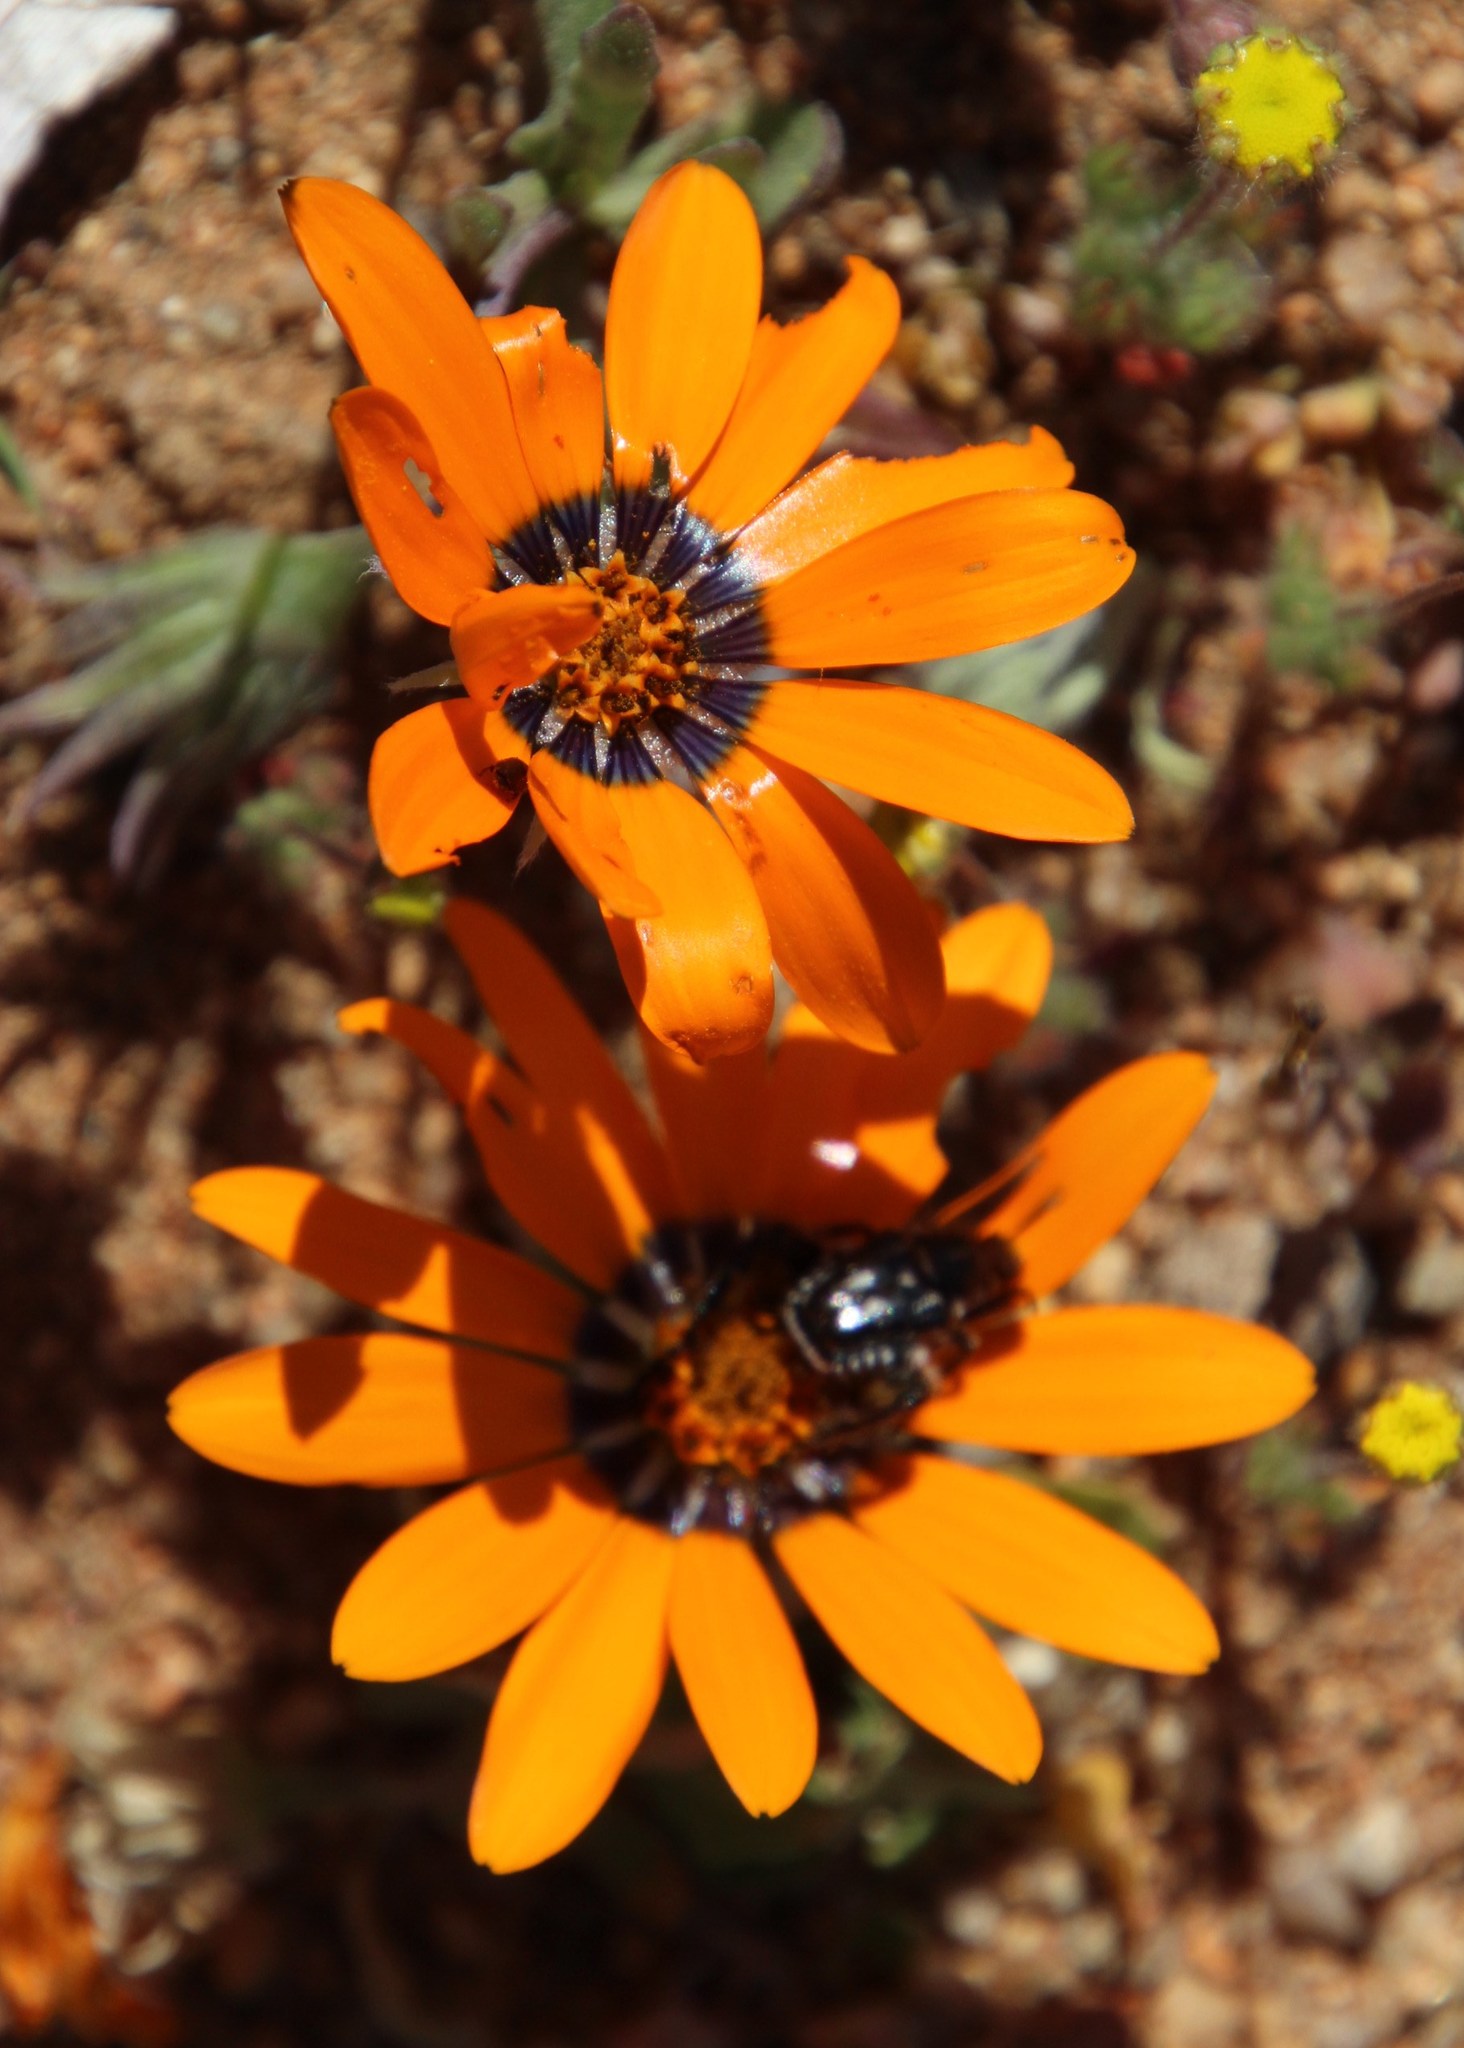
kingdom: Plantae
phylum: Tracheophyta
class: Magnoliopsida
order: Asterales
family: Asteraceae
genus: Dimorphotheca
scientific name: Dimorphotheca sinuata
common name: Glandular cape marigold
